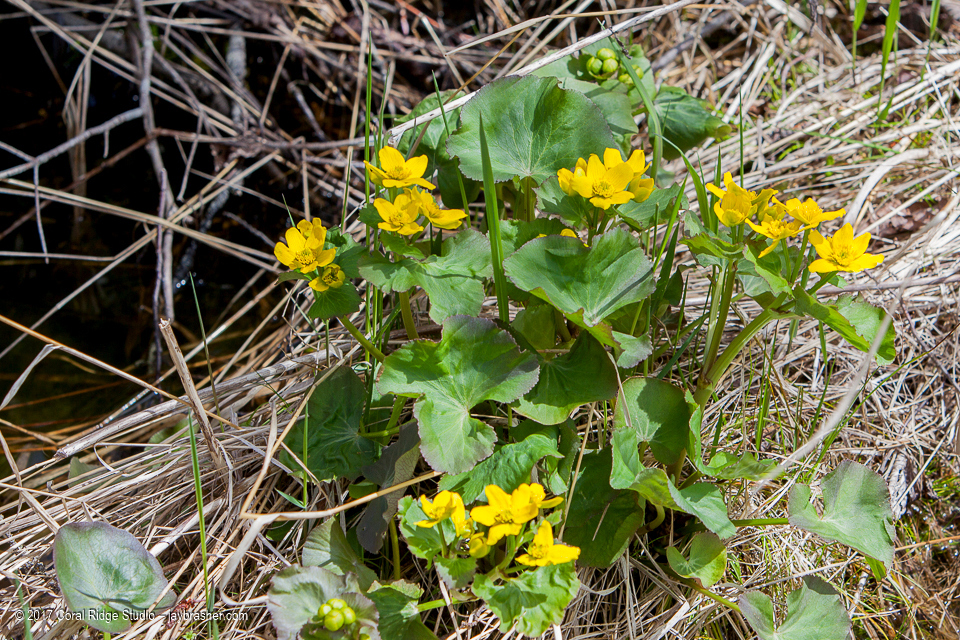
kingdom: Plantae
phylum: Tracheophyta
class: Magnoliopsida
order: Ranunculales
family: Ranunculaceae
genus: Caltha
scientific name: Caltha palustris
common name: Marsh marigold
